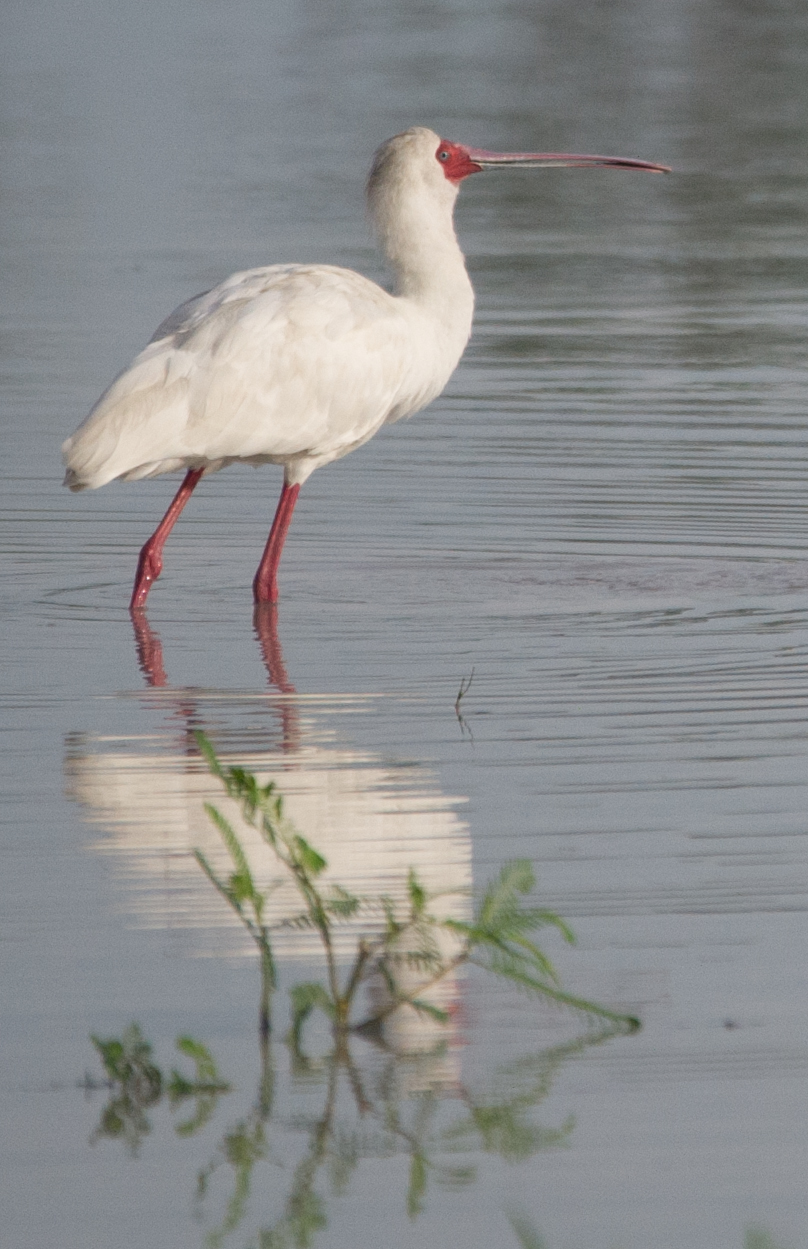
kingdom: Animalia
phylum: Chordata
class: Aves
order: Pelecaniformes
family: Threskiornithidae
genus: Platalea
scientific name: Platalea alba
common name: African spoonbill
